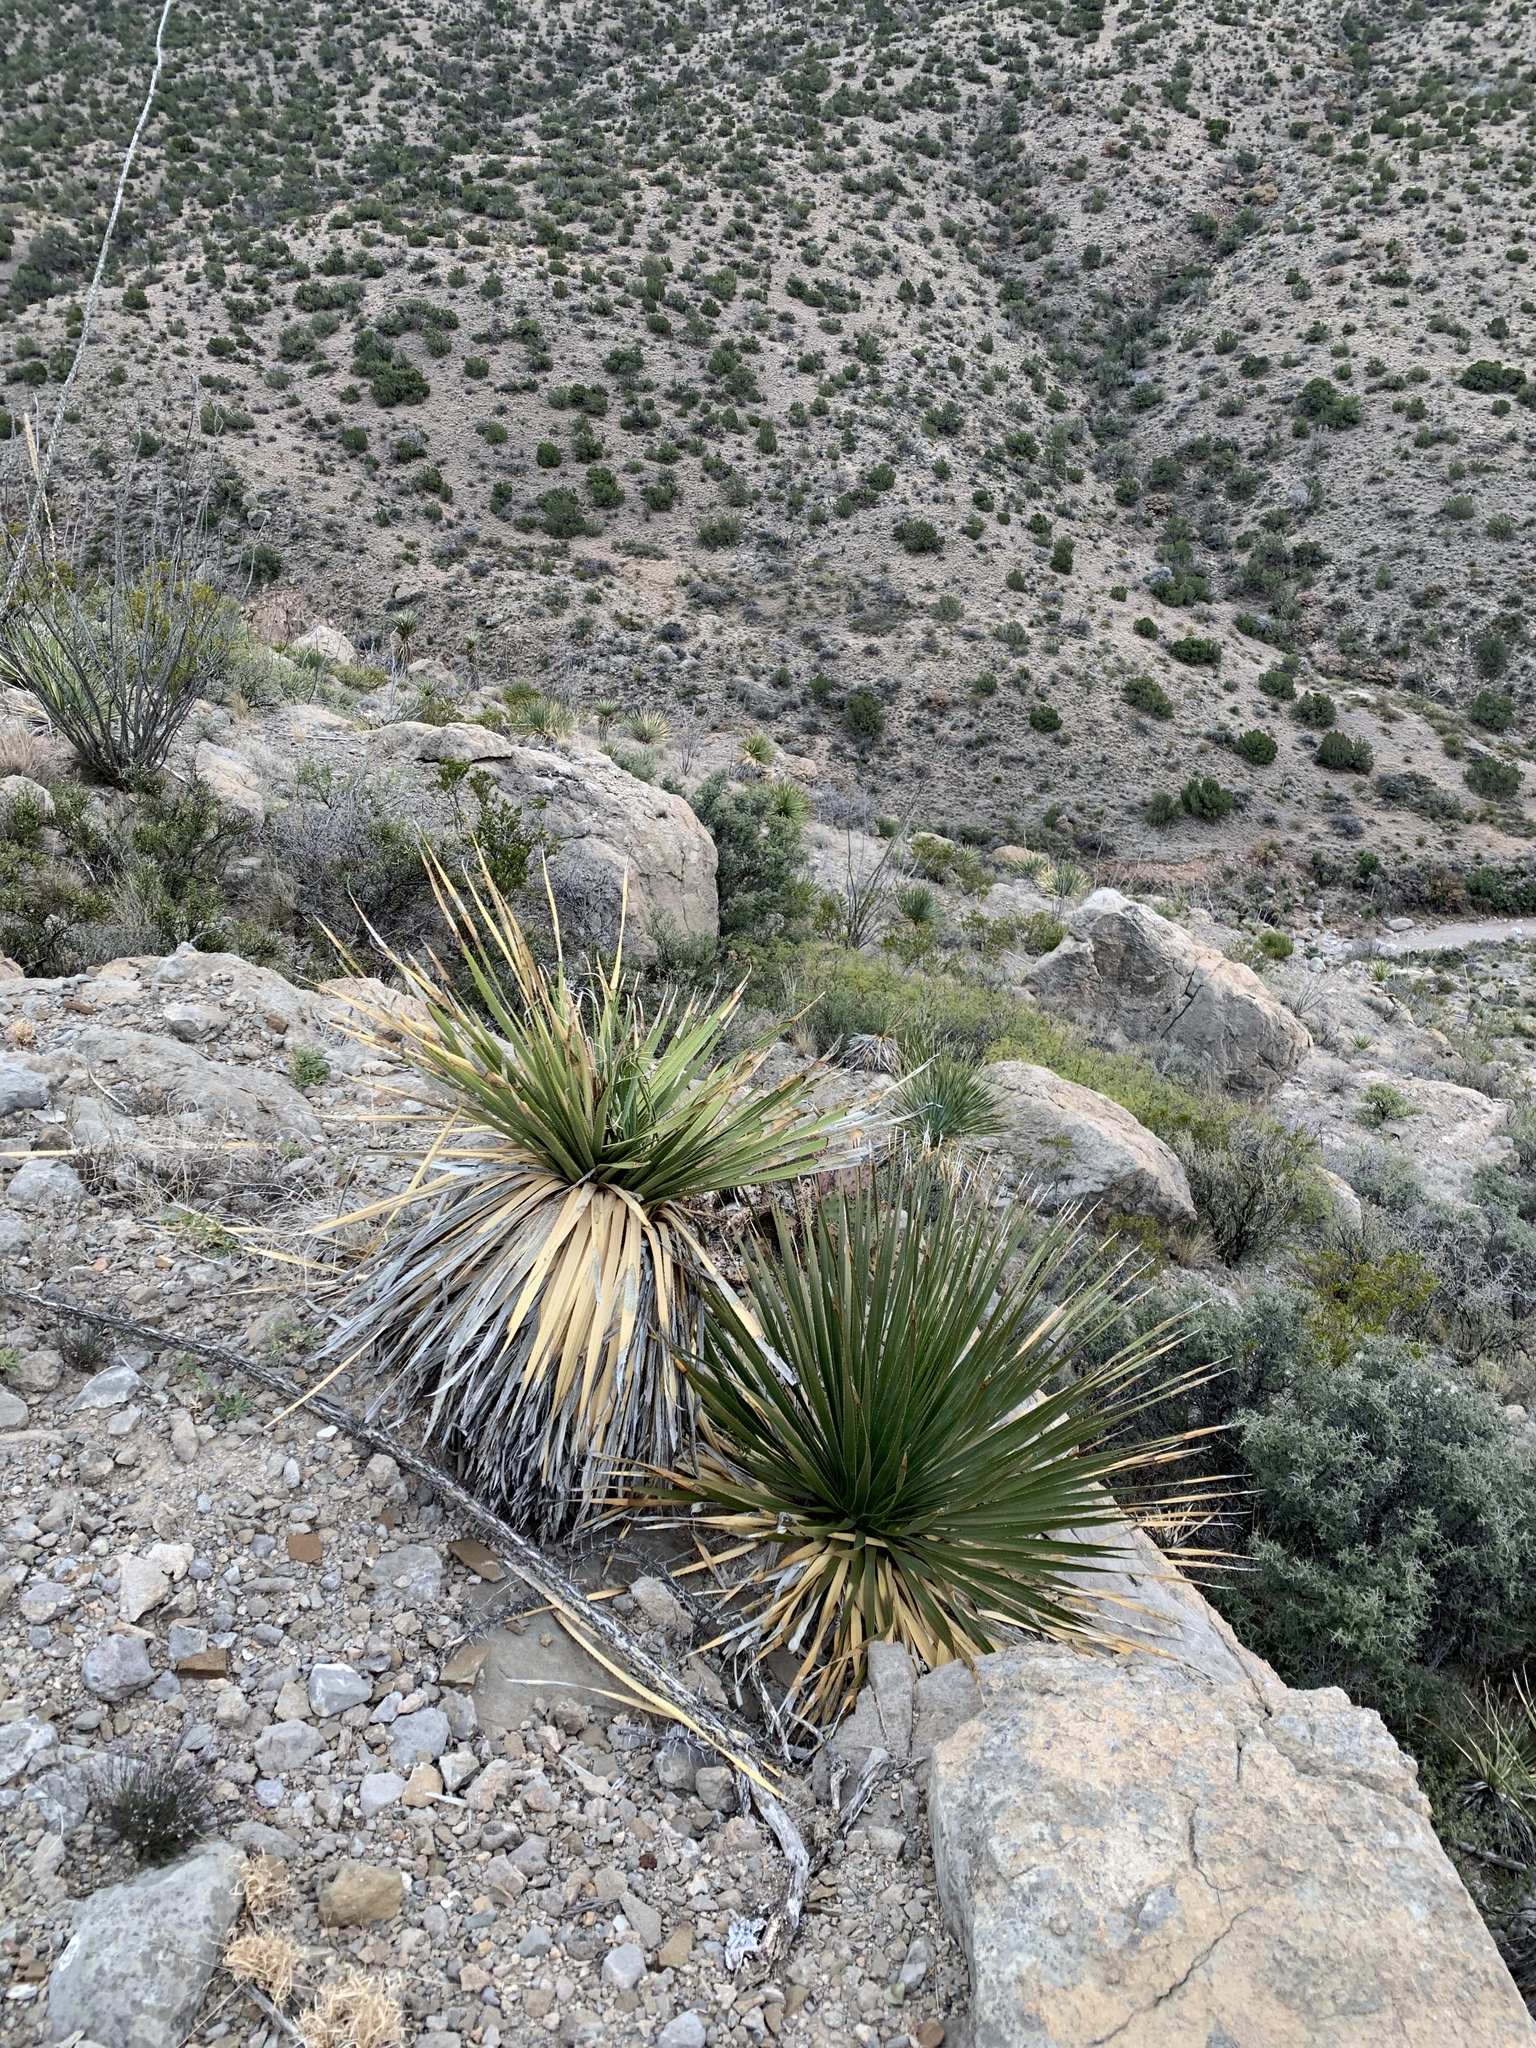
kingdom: Plantae
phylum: Tracheophyta
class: Liliopsida
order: Asparagales
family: Asparagaceae
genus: Dasylirion
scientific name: Dasylirion wheeleri
